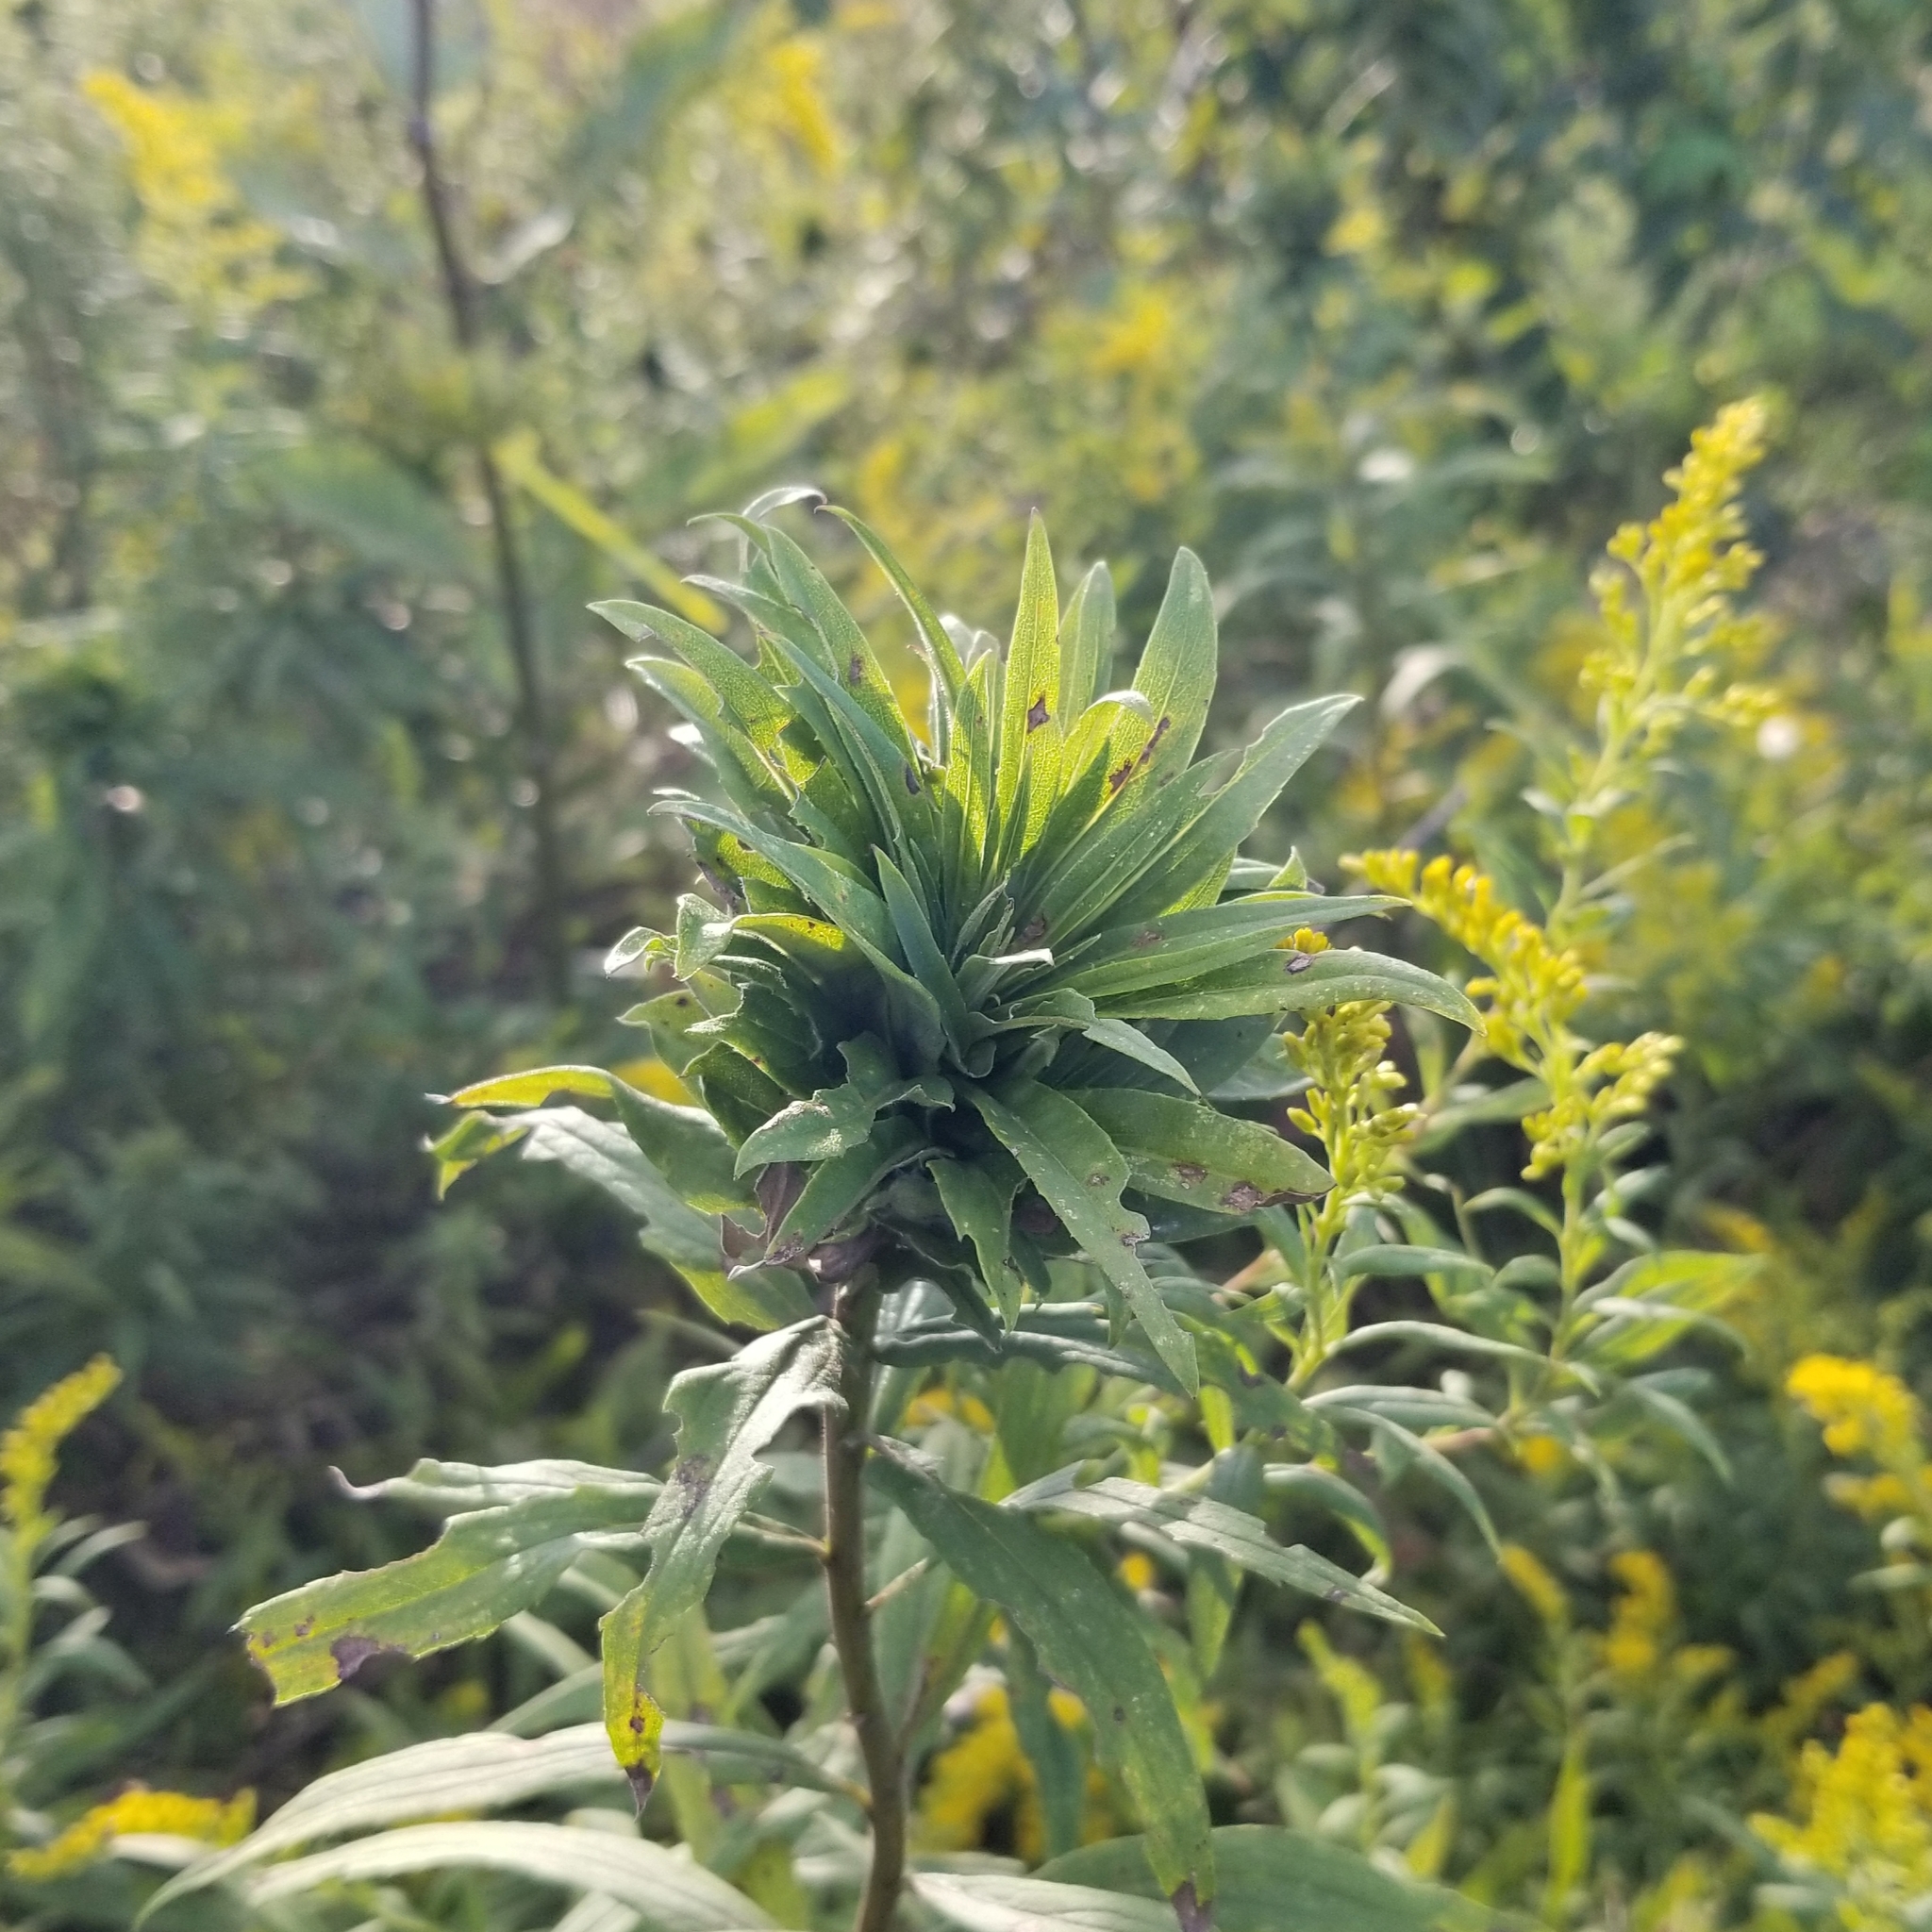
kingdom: Animalia
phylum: Arthropoda
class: Insecta
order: Diptera
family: Cecidomyiidae
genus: Rhopalomyia
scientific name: Rhopalomyia solidaginis
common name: Goldenrod bunch gall midge
